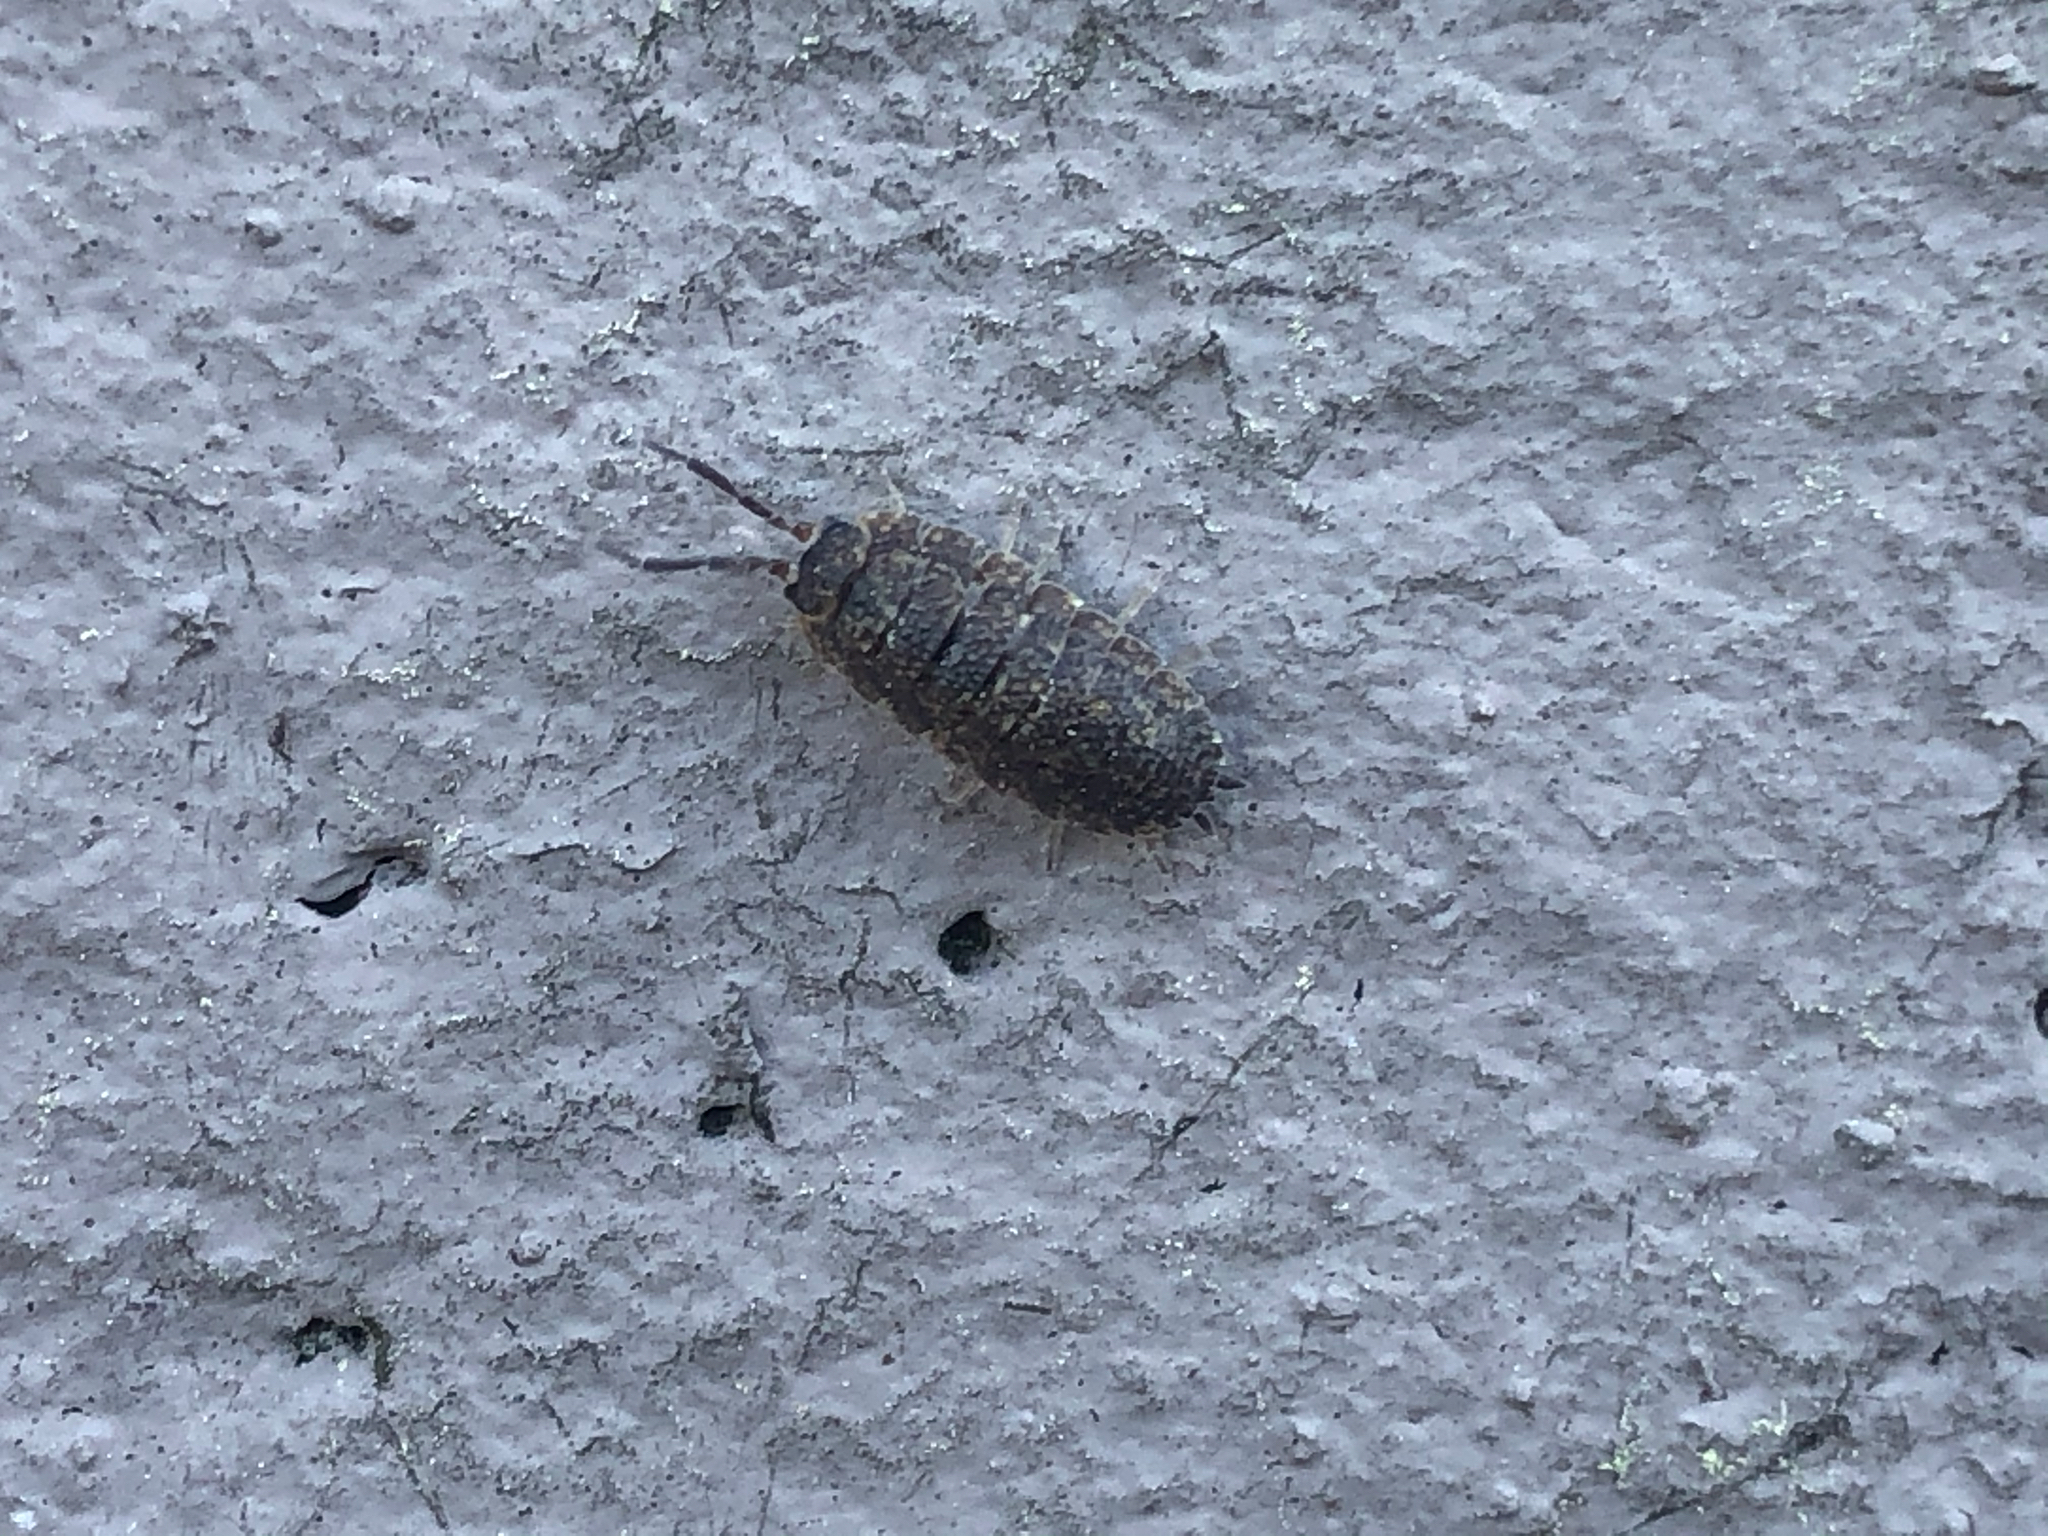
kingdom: Animalia
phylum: Arthropoda
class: Malacostraca
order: Isopoda
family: Porcellionidae
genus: Porcellio
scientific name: Porcellio scaber
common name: Common rough woodlouse
